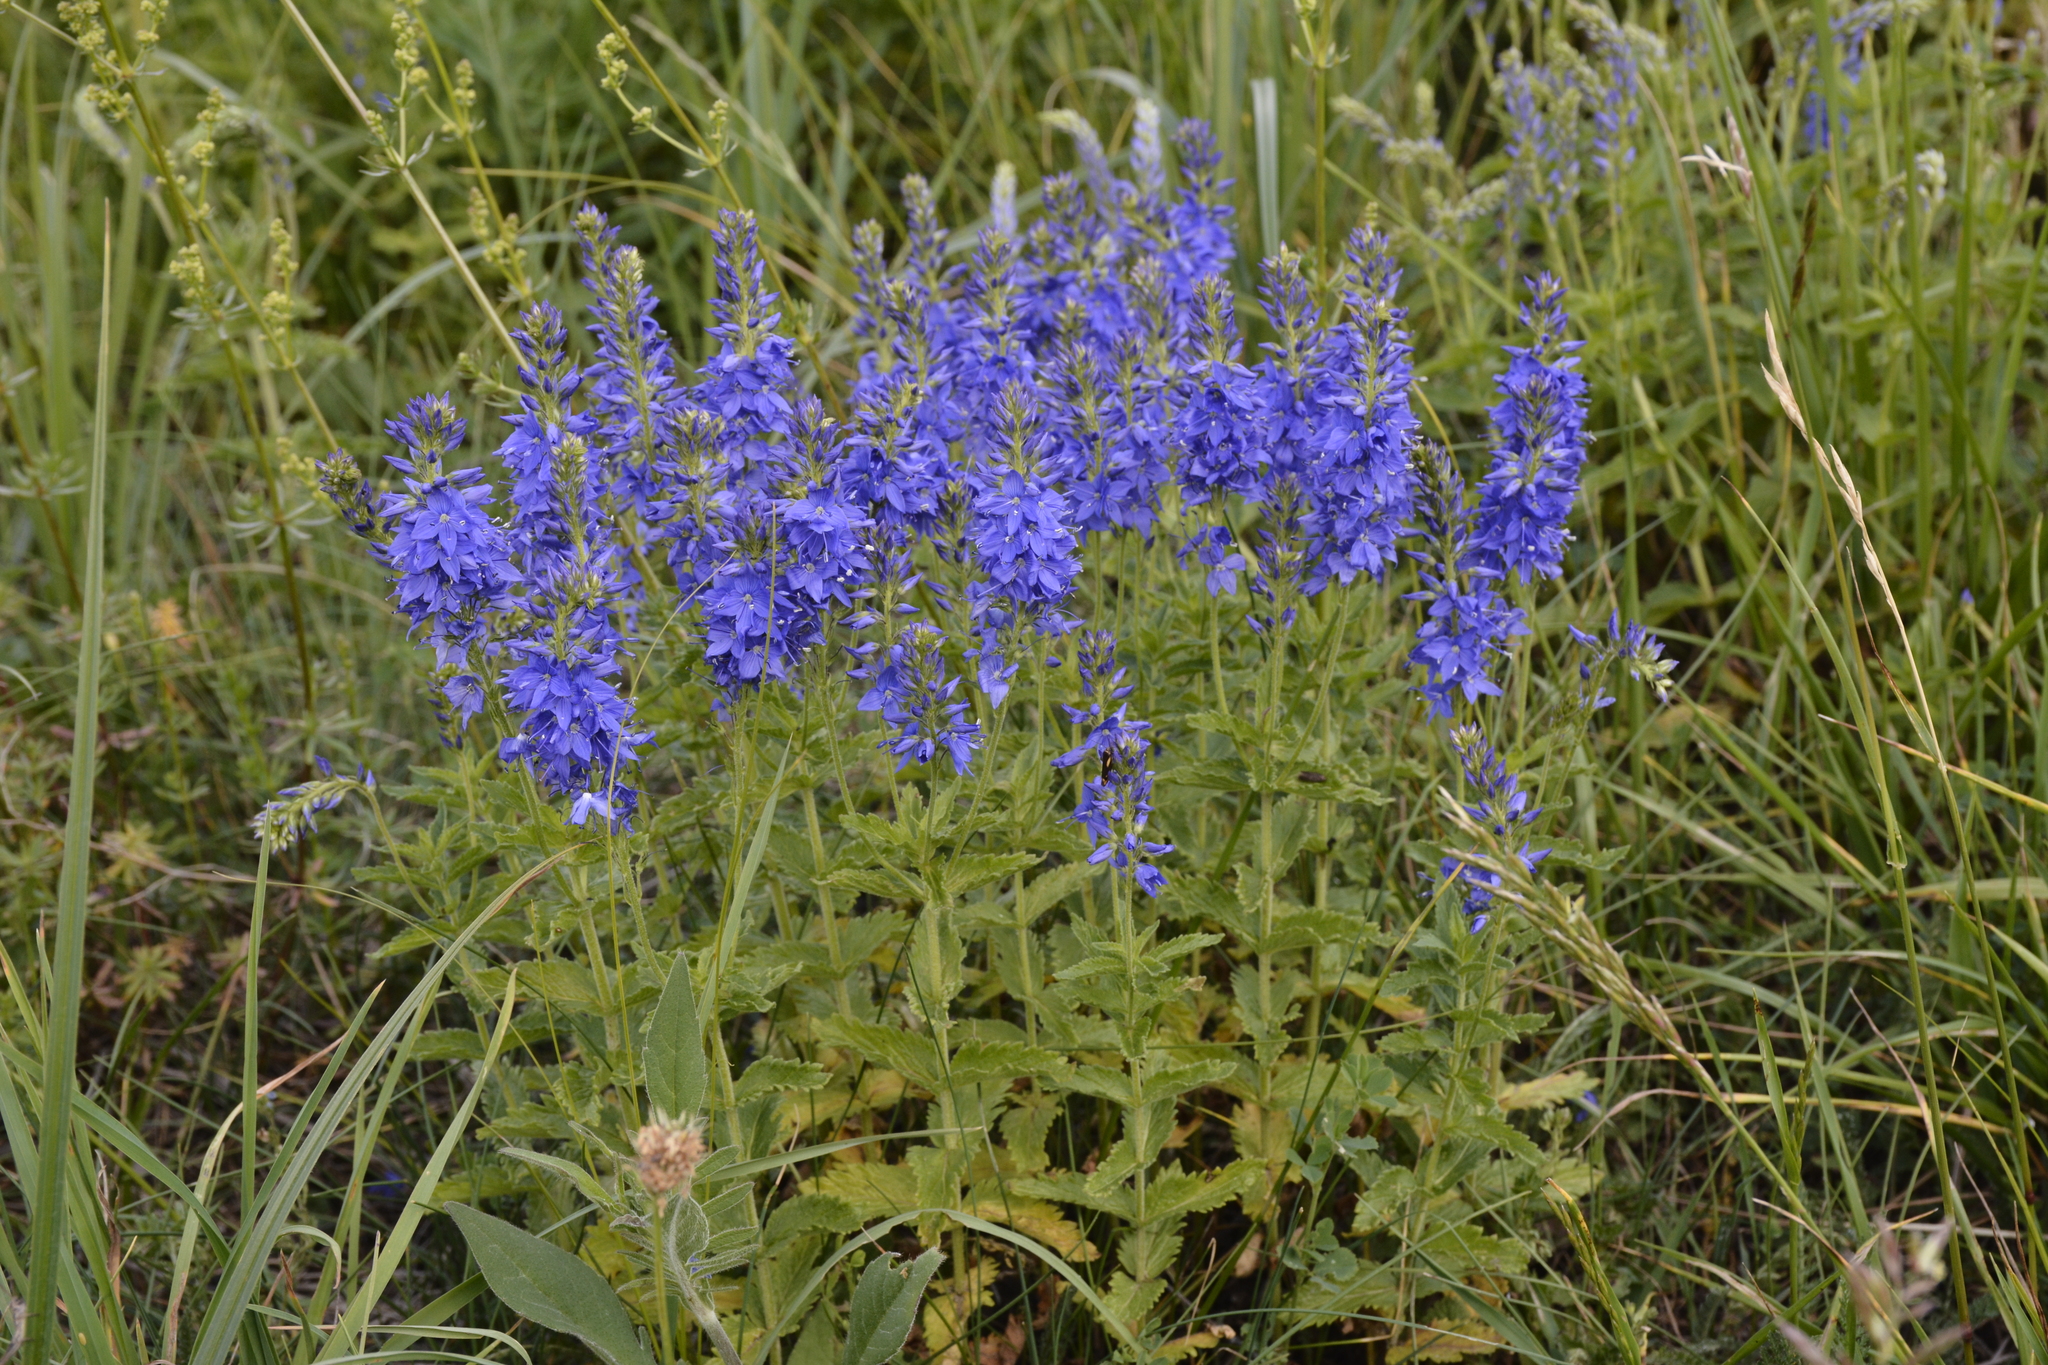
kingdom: Plantae
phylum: Tracheophyta
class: Magnoliopsida
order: Lamiales
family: Plantaginaceae
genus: Veronica
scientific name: Veronica teucrium
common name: Large speedwell
